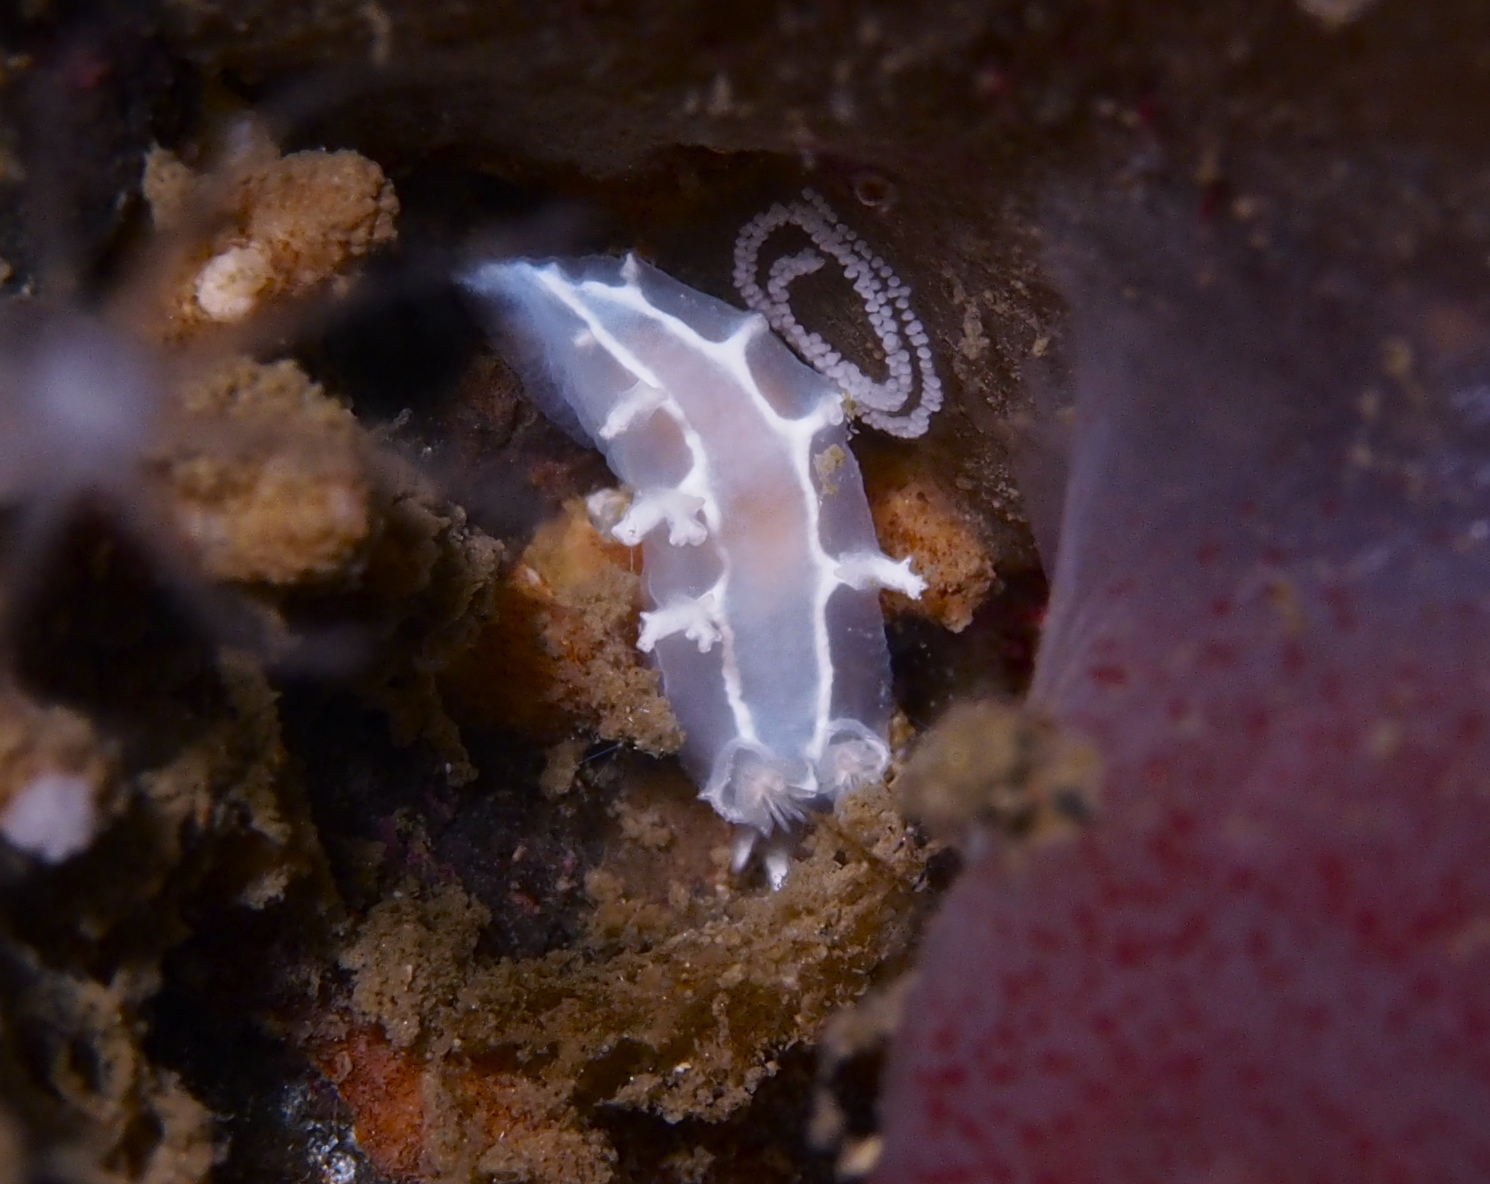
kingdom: Animalia
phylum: Mollusca
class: Gastropoda
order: Nudibranchia
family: Tritoniidae
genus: Duvaucelia
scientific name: Duvaucelia lineata
